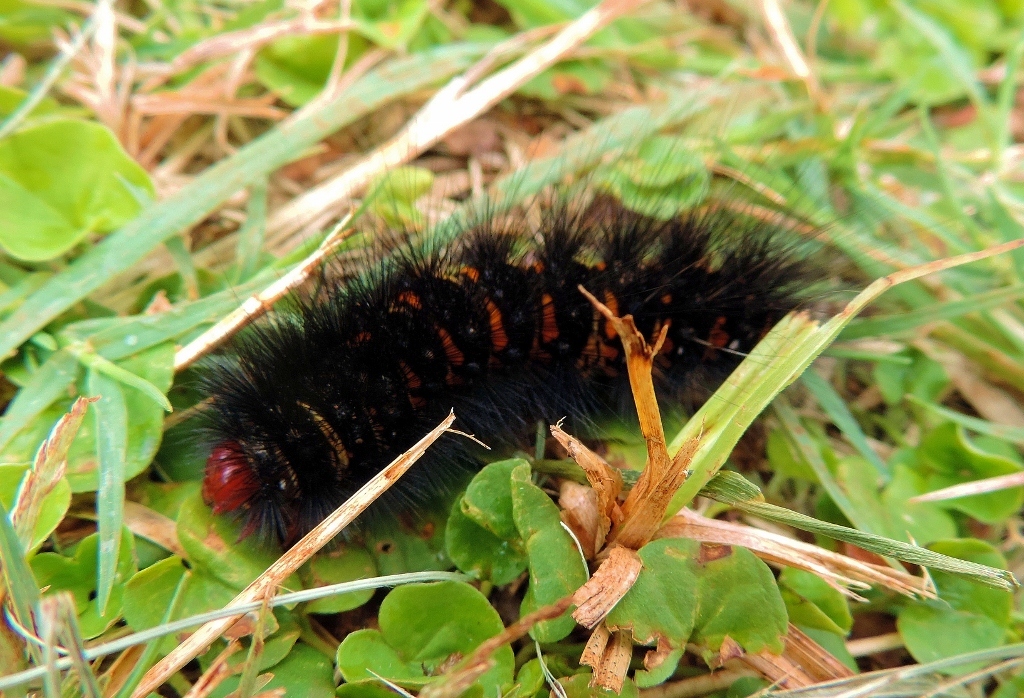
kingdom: Animalia
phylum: Arthropoda
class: Insecta
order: Lepidoptera
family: Erebidae
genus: Afromurzinia
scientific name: Afromurzinia lutescens
